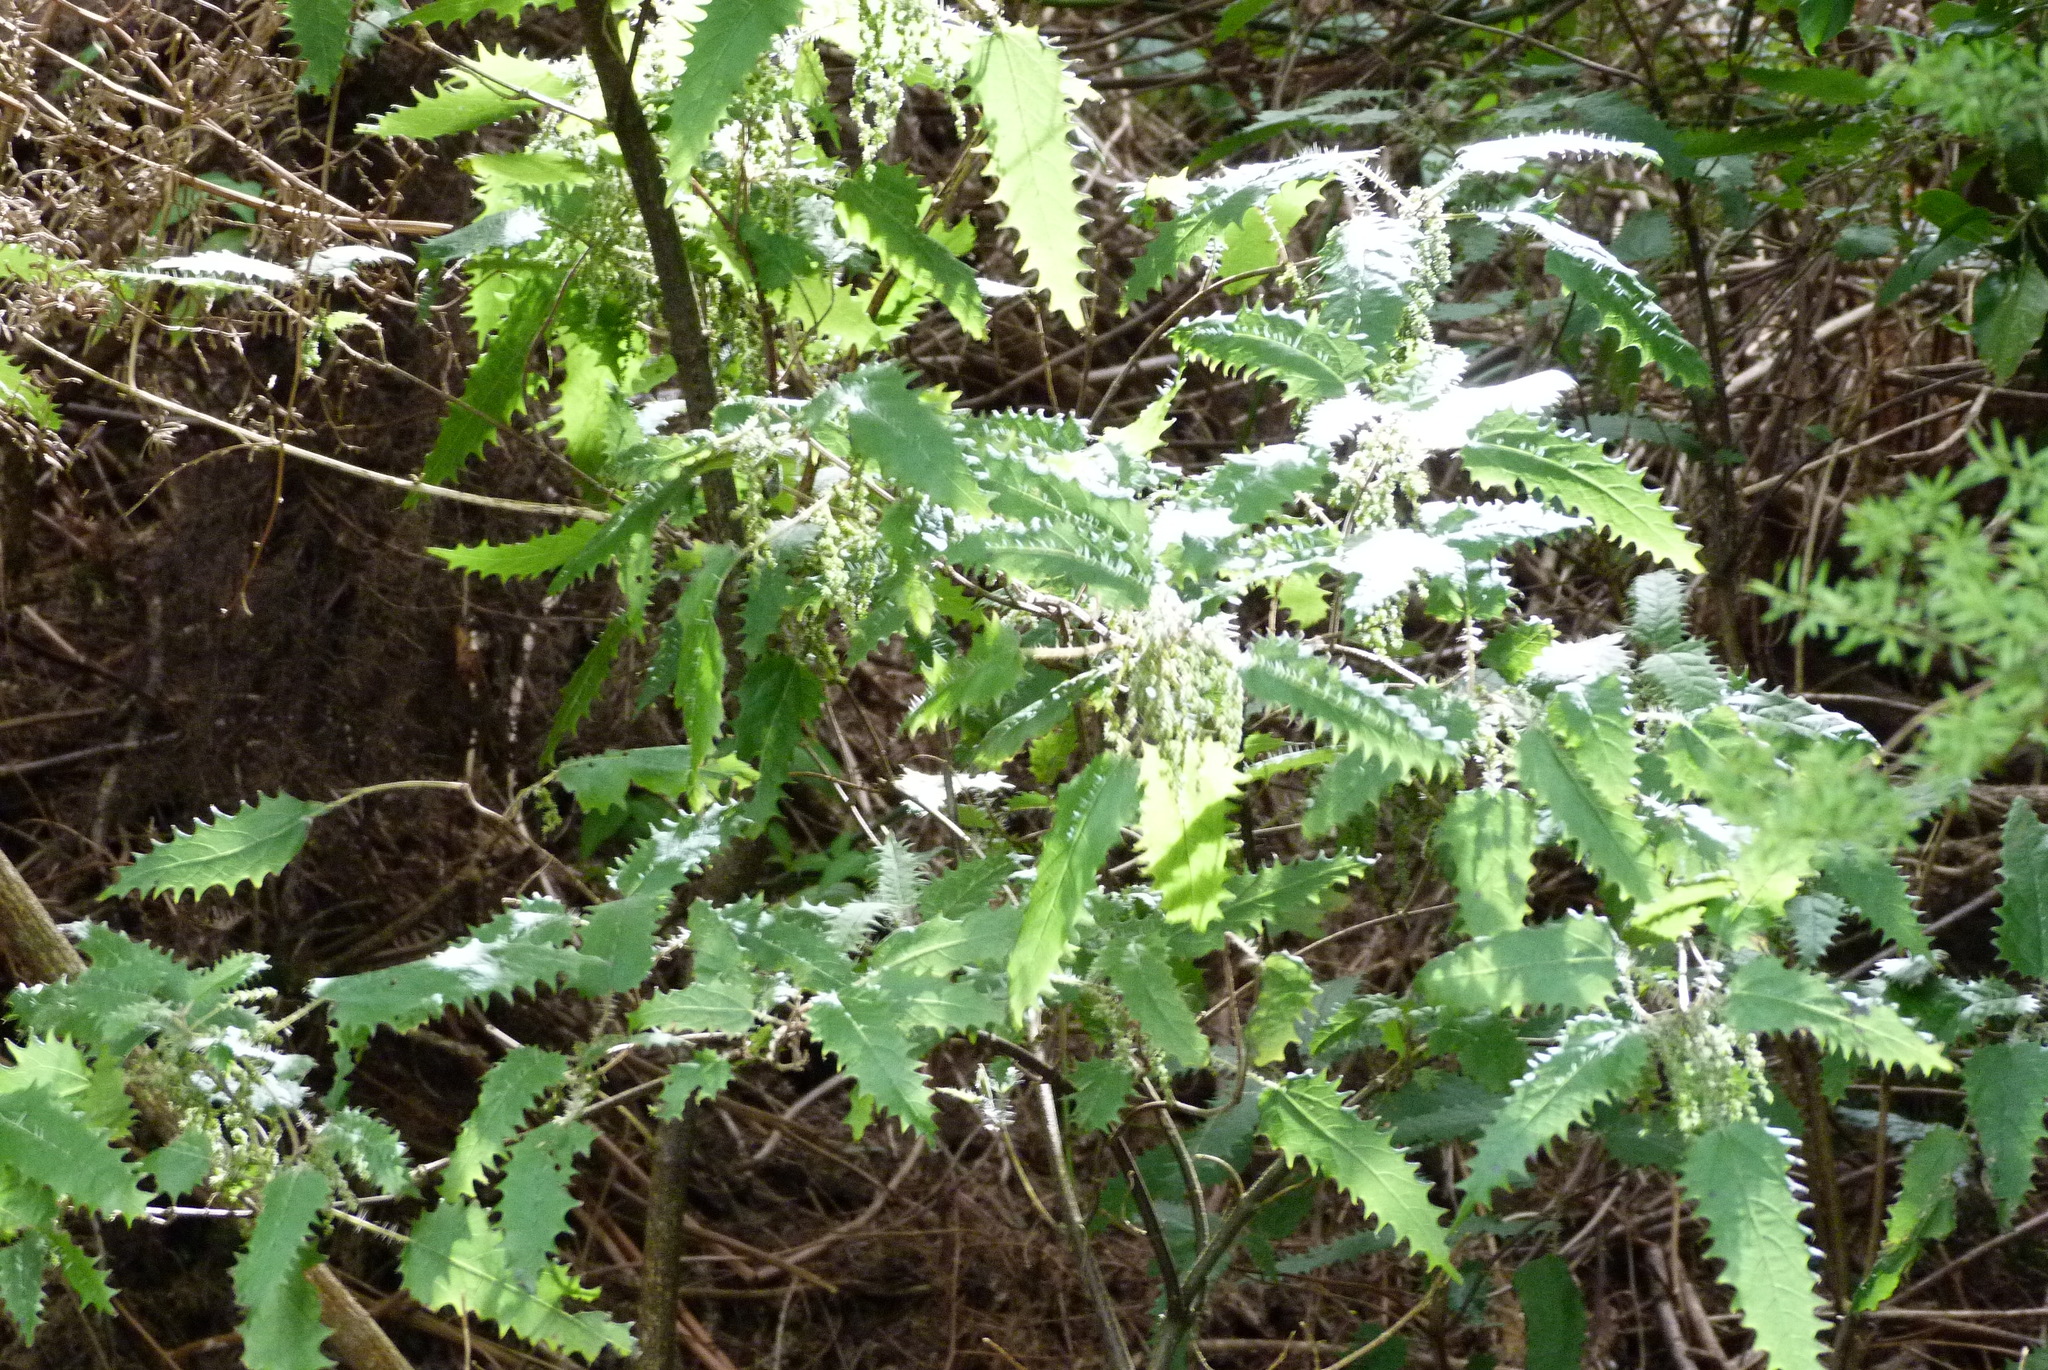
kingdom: Plantae
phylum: Tracheophyta
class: Magnoliopsida
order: Rosales
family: Urticaceae
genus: Urtica
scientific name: Urtica ferox
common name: Tree nettle
